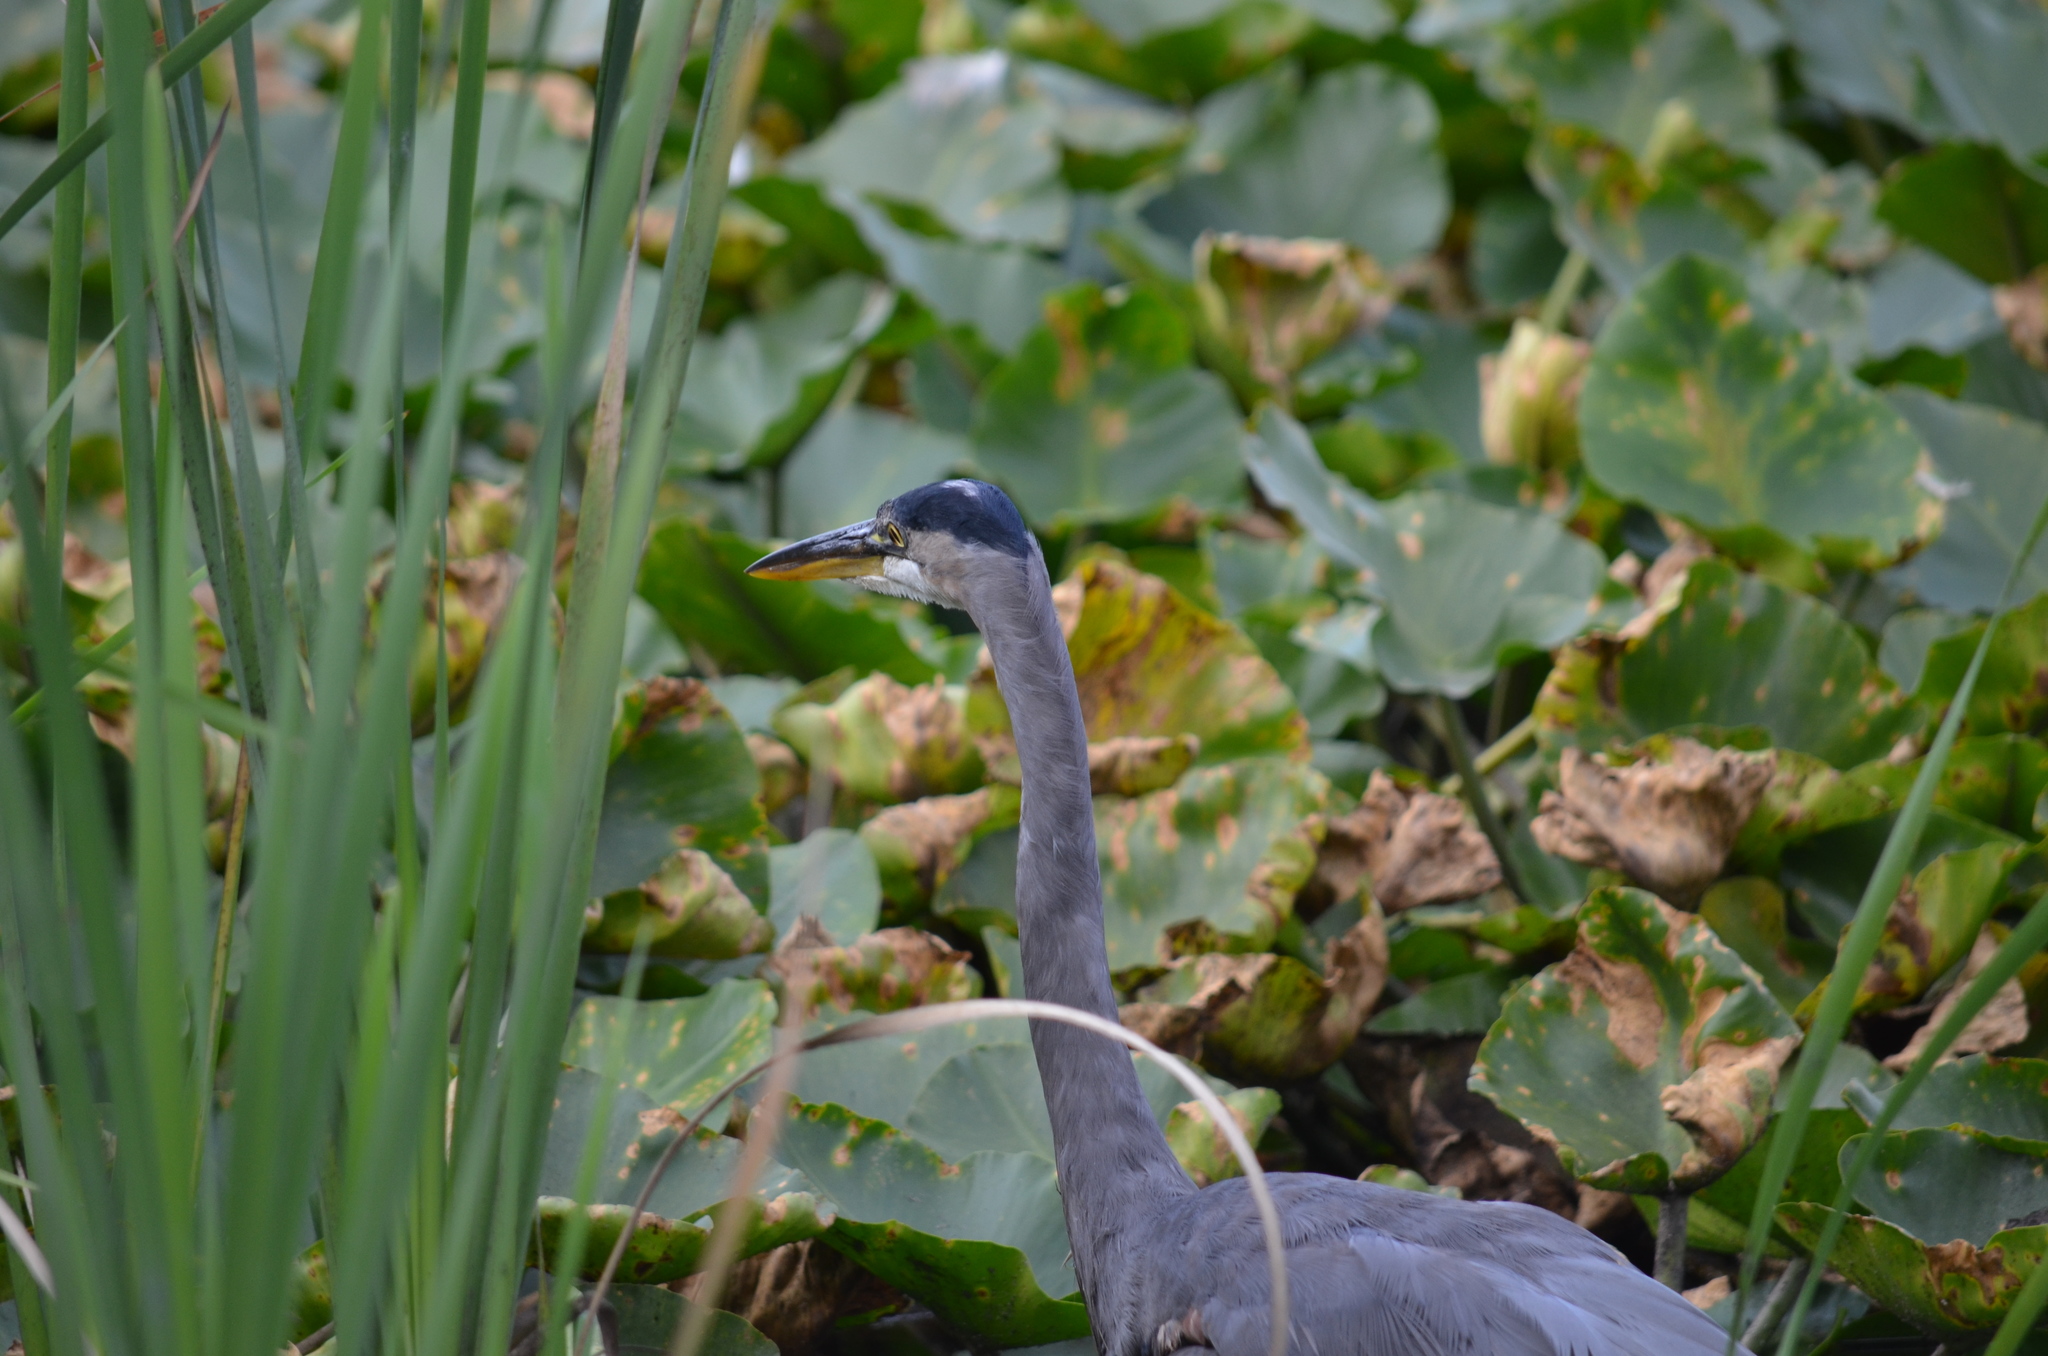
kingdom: Animalia
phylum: Chordata
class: Aves
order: Pelecaniformes
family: Ardeidae
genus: Ardea
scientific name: Ardea herodias
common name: Great blue heron
